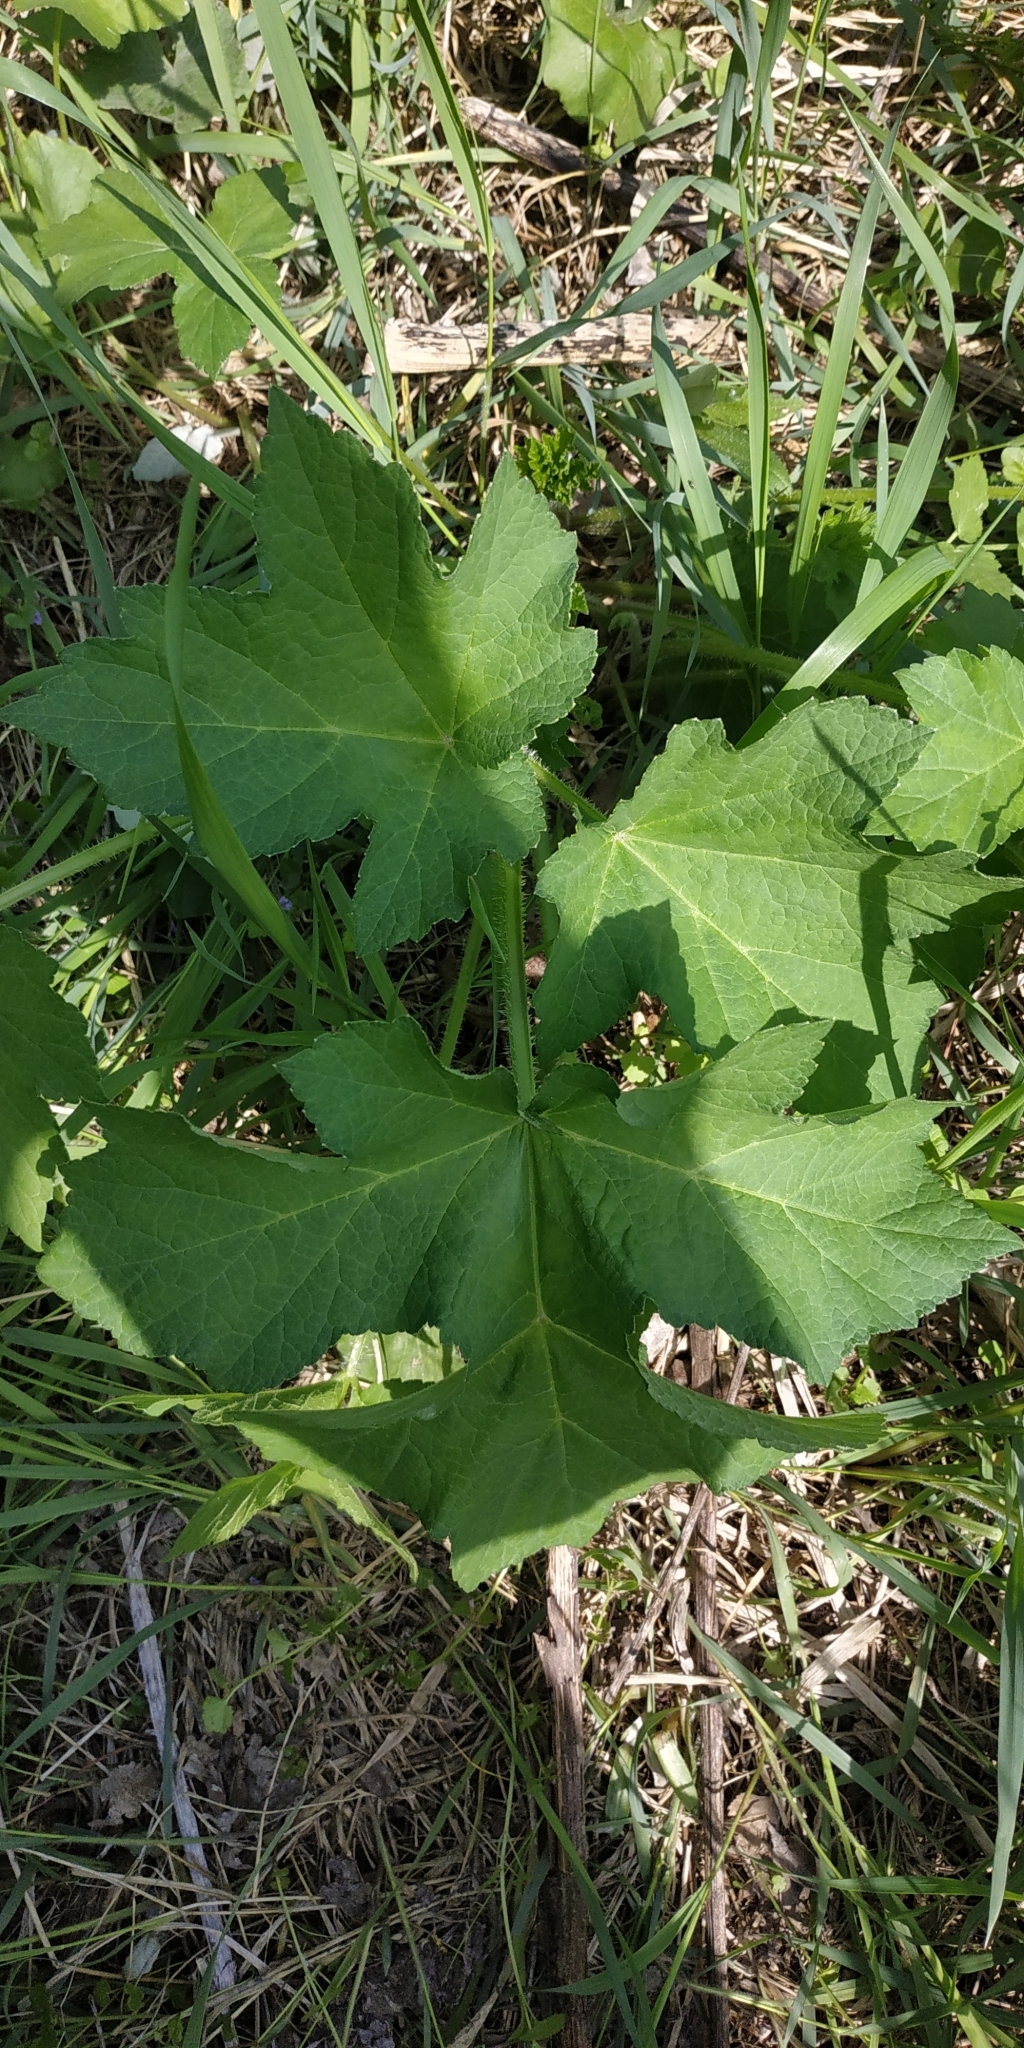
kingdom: Plantae
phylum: Tracheophyta
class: Magnoliopsida
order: Apiales
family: Apiaceae
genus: Heracleum
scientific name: Heracleum sphondylium
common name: Hogweed
